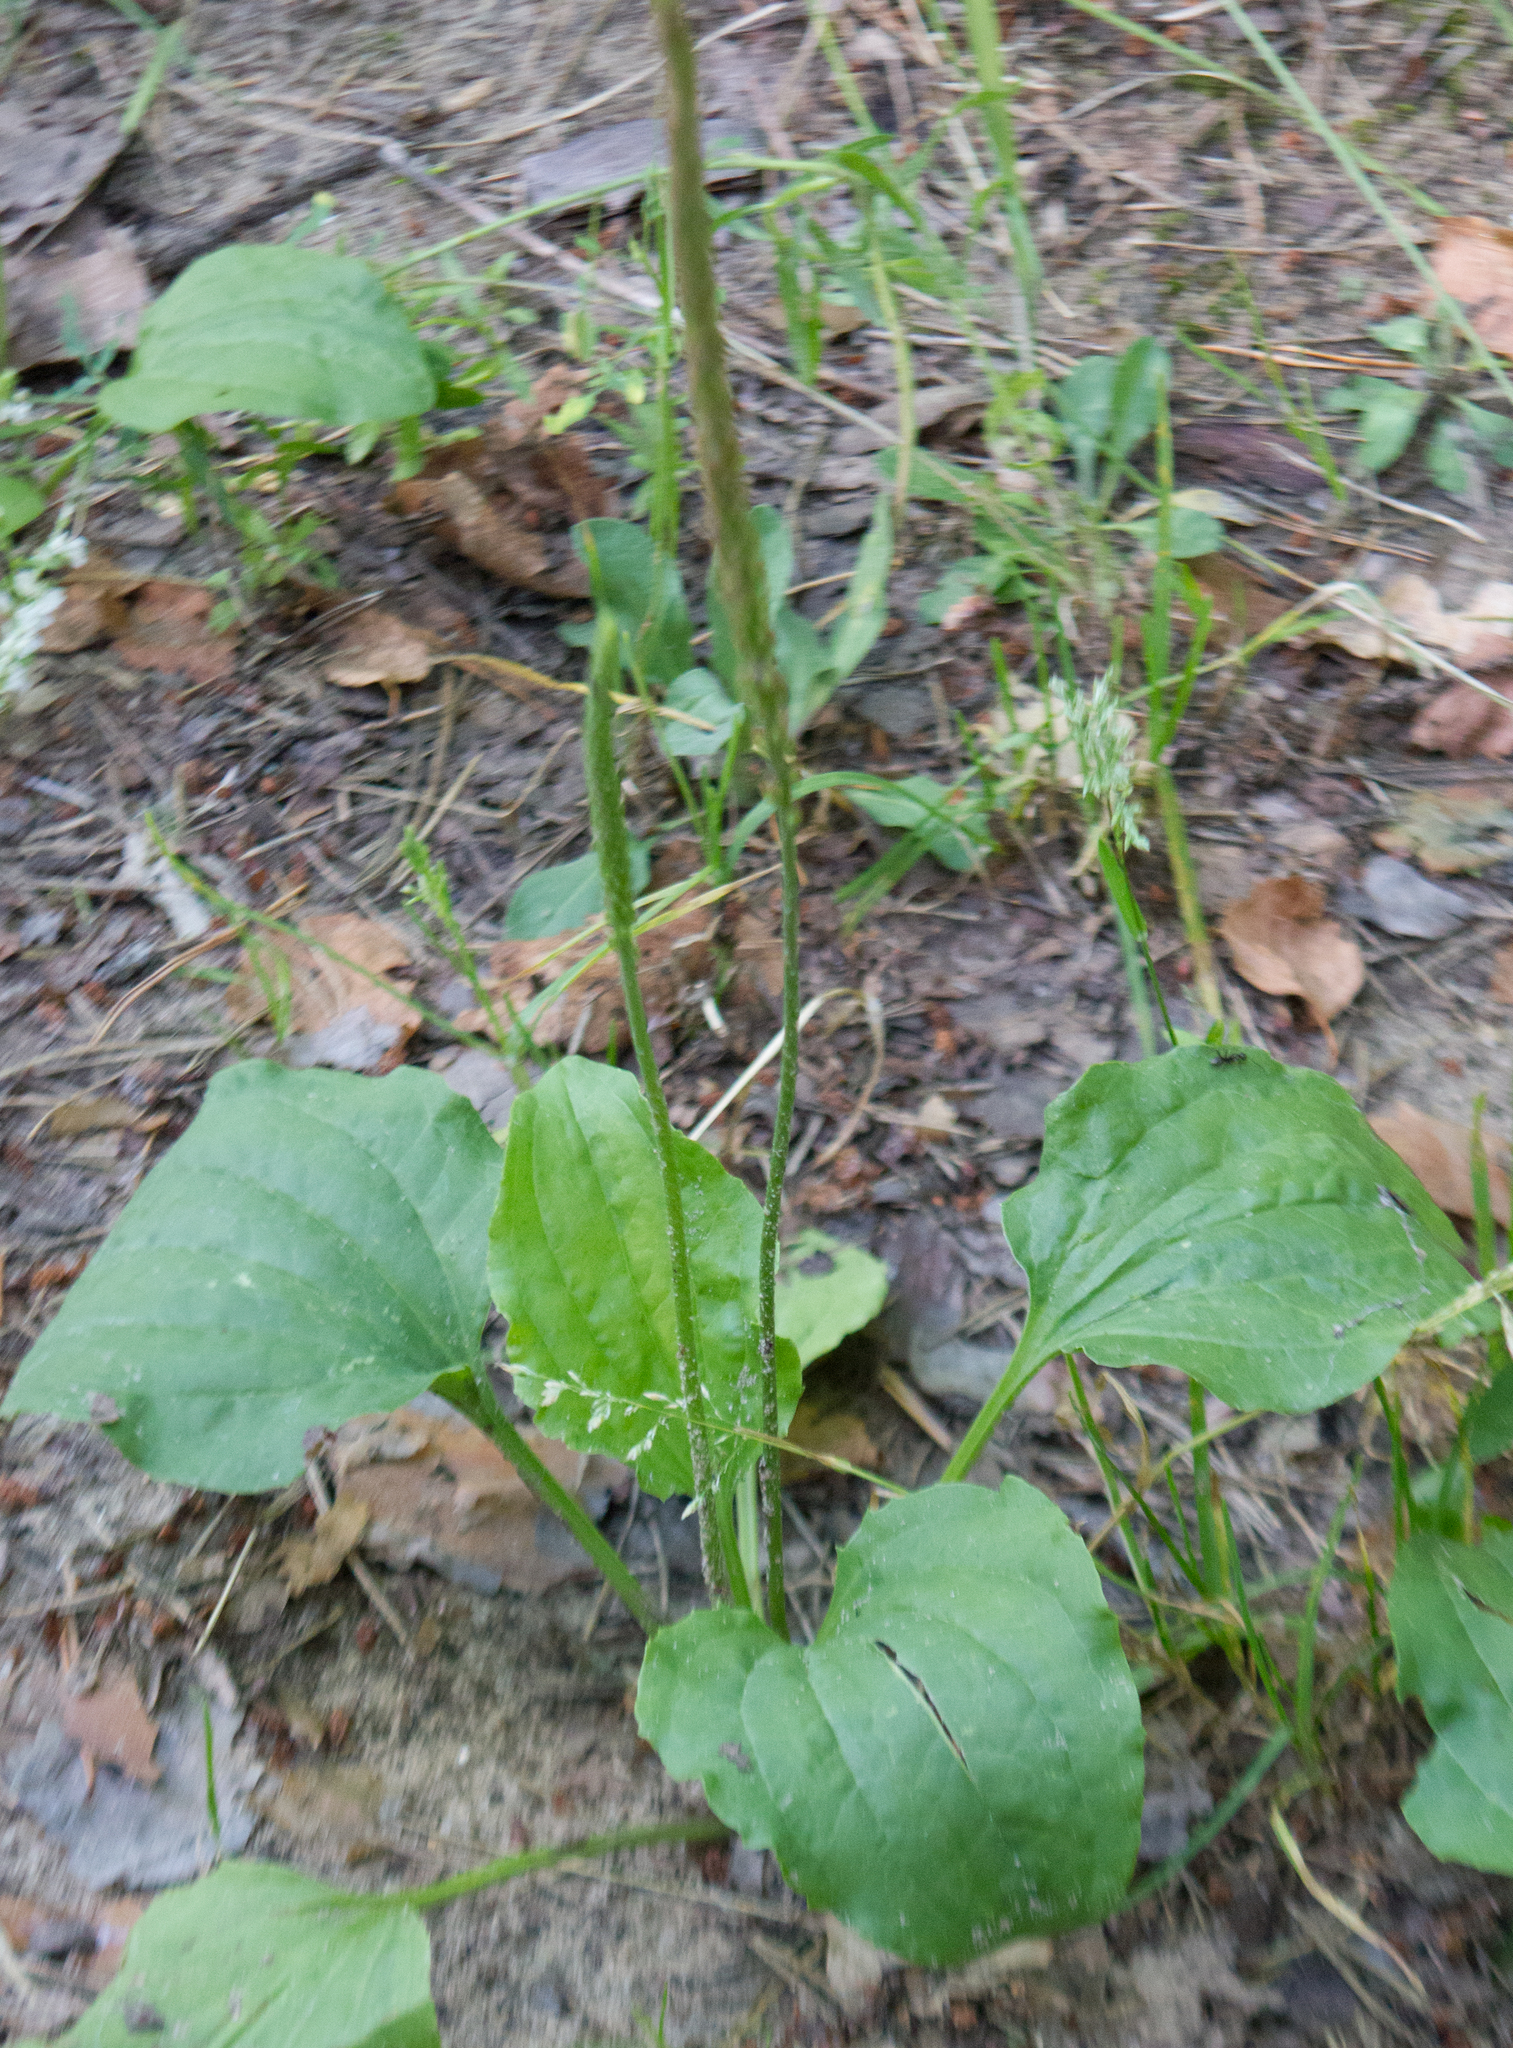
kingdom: Plantae
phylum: Tracheophyta
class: Magnoliopsida
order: Lamiales
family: Plantaginaceae
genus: Plantago
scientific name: Plantago major
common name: Common plantain
